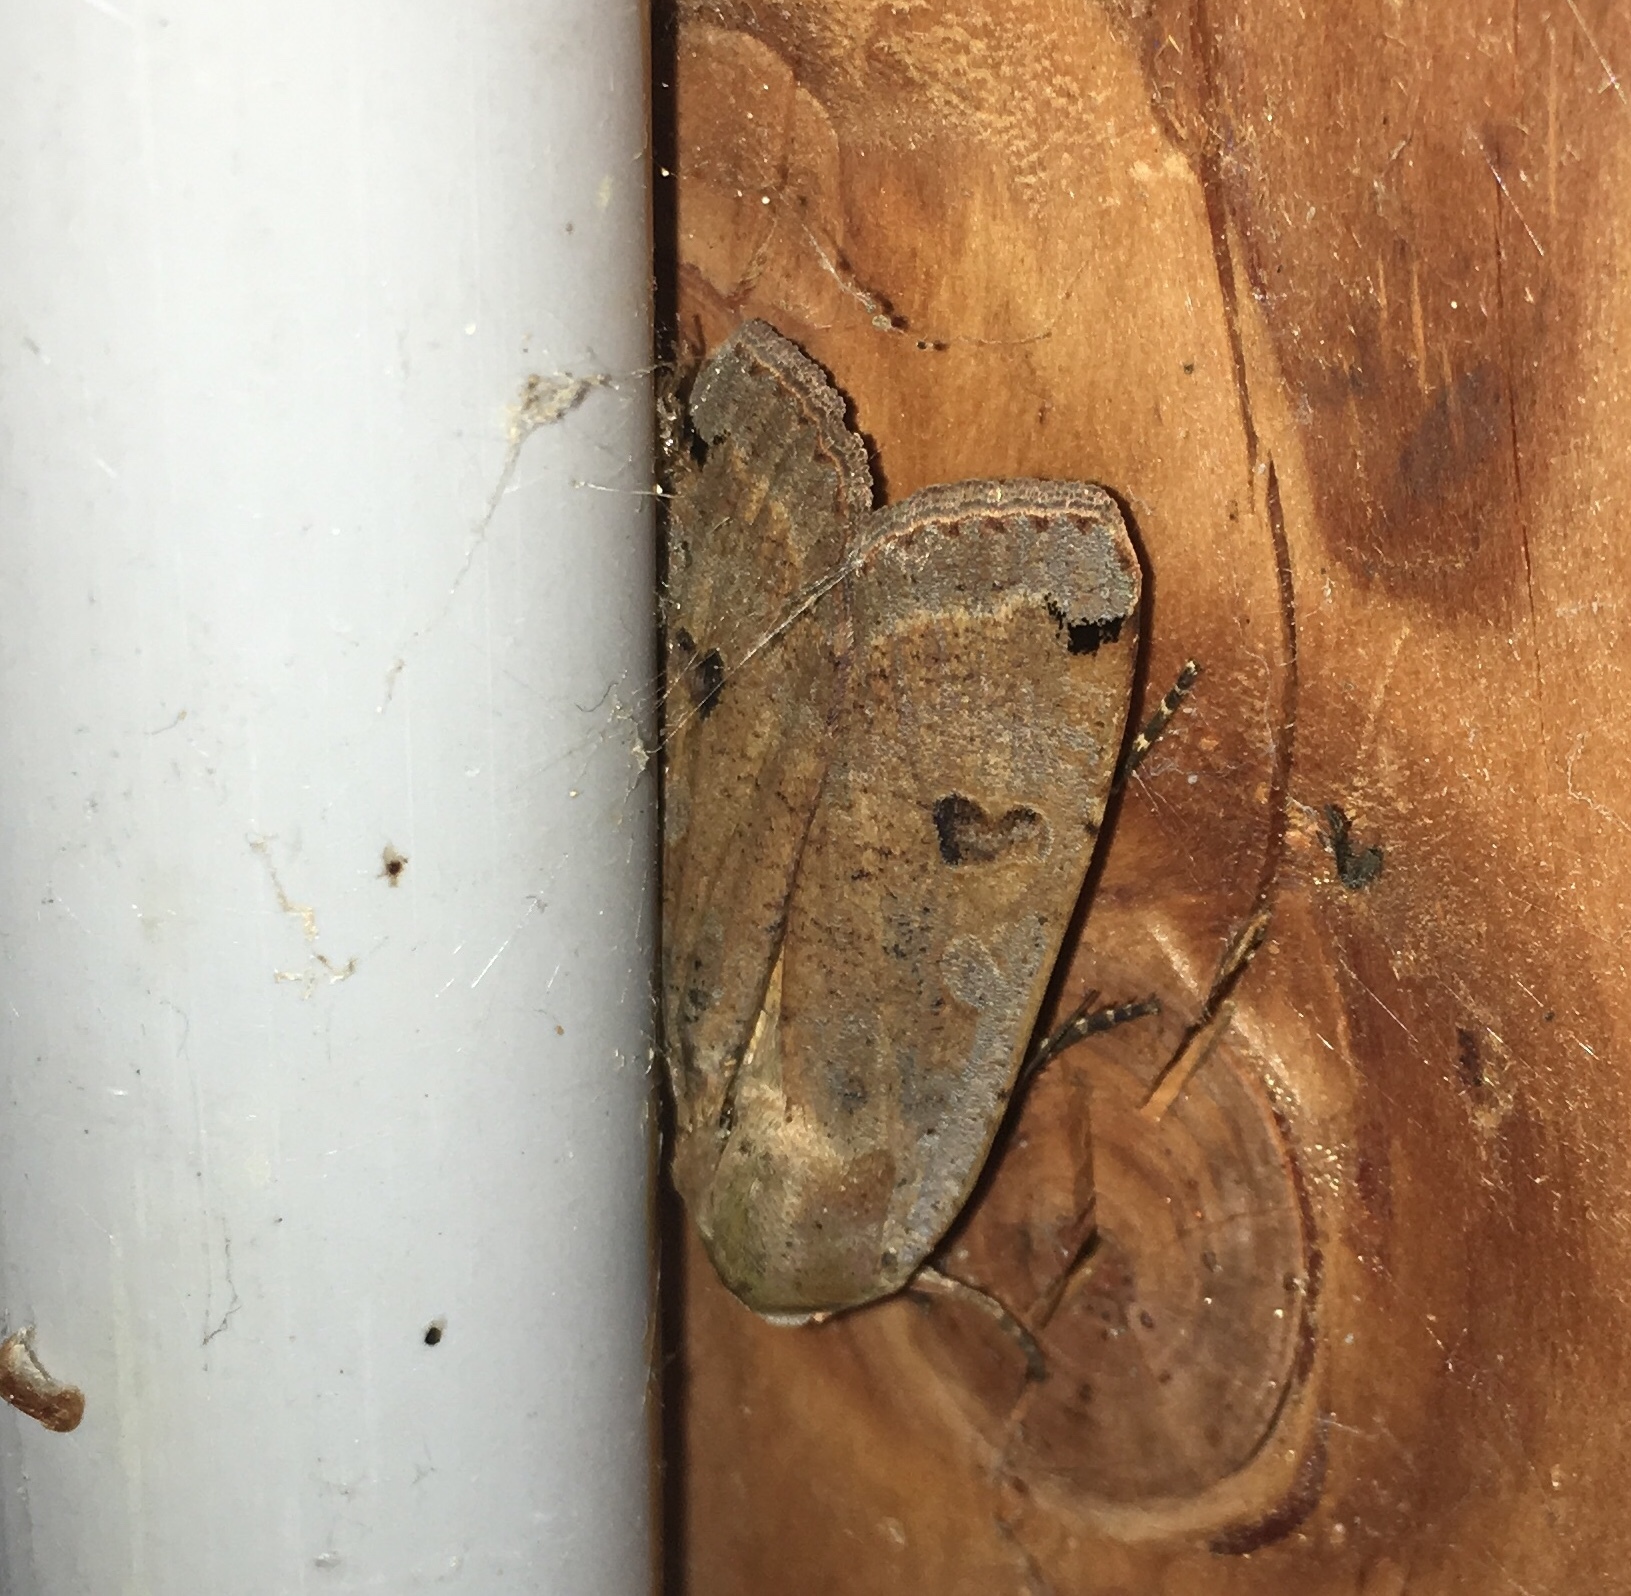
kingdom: Animalia
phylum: Arthropoda
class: Insecta
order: Lepidoptera
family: Noctuidae
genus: Noctua
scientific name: Noctua pronuba
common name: Large yellow underwing
